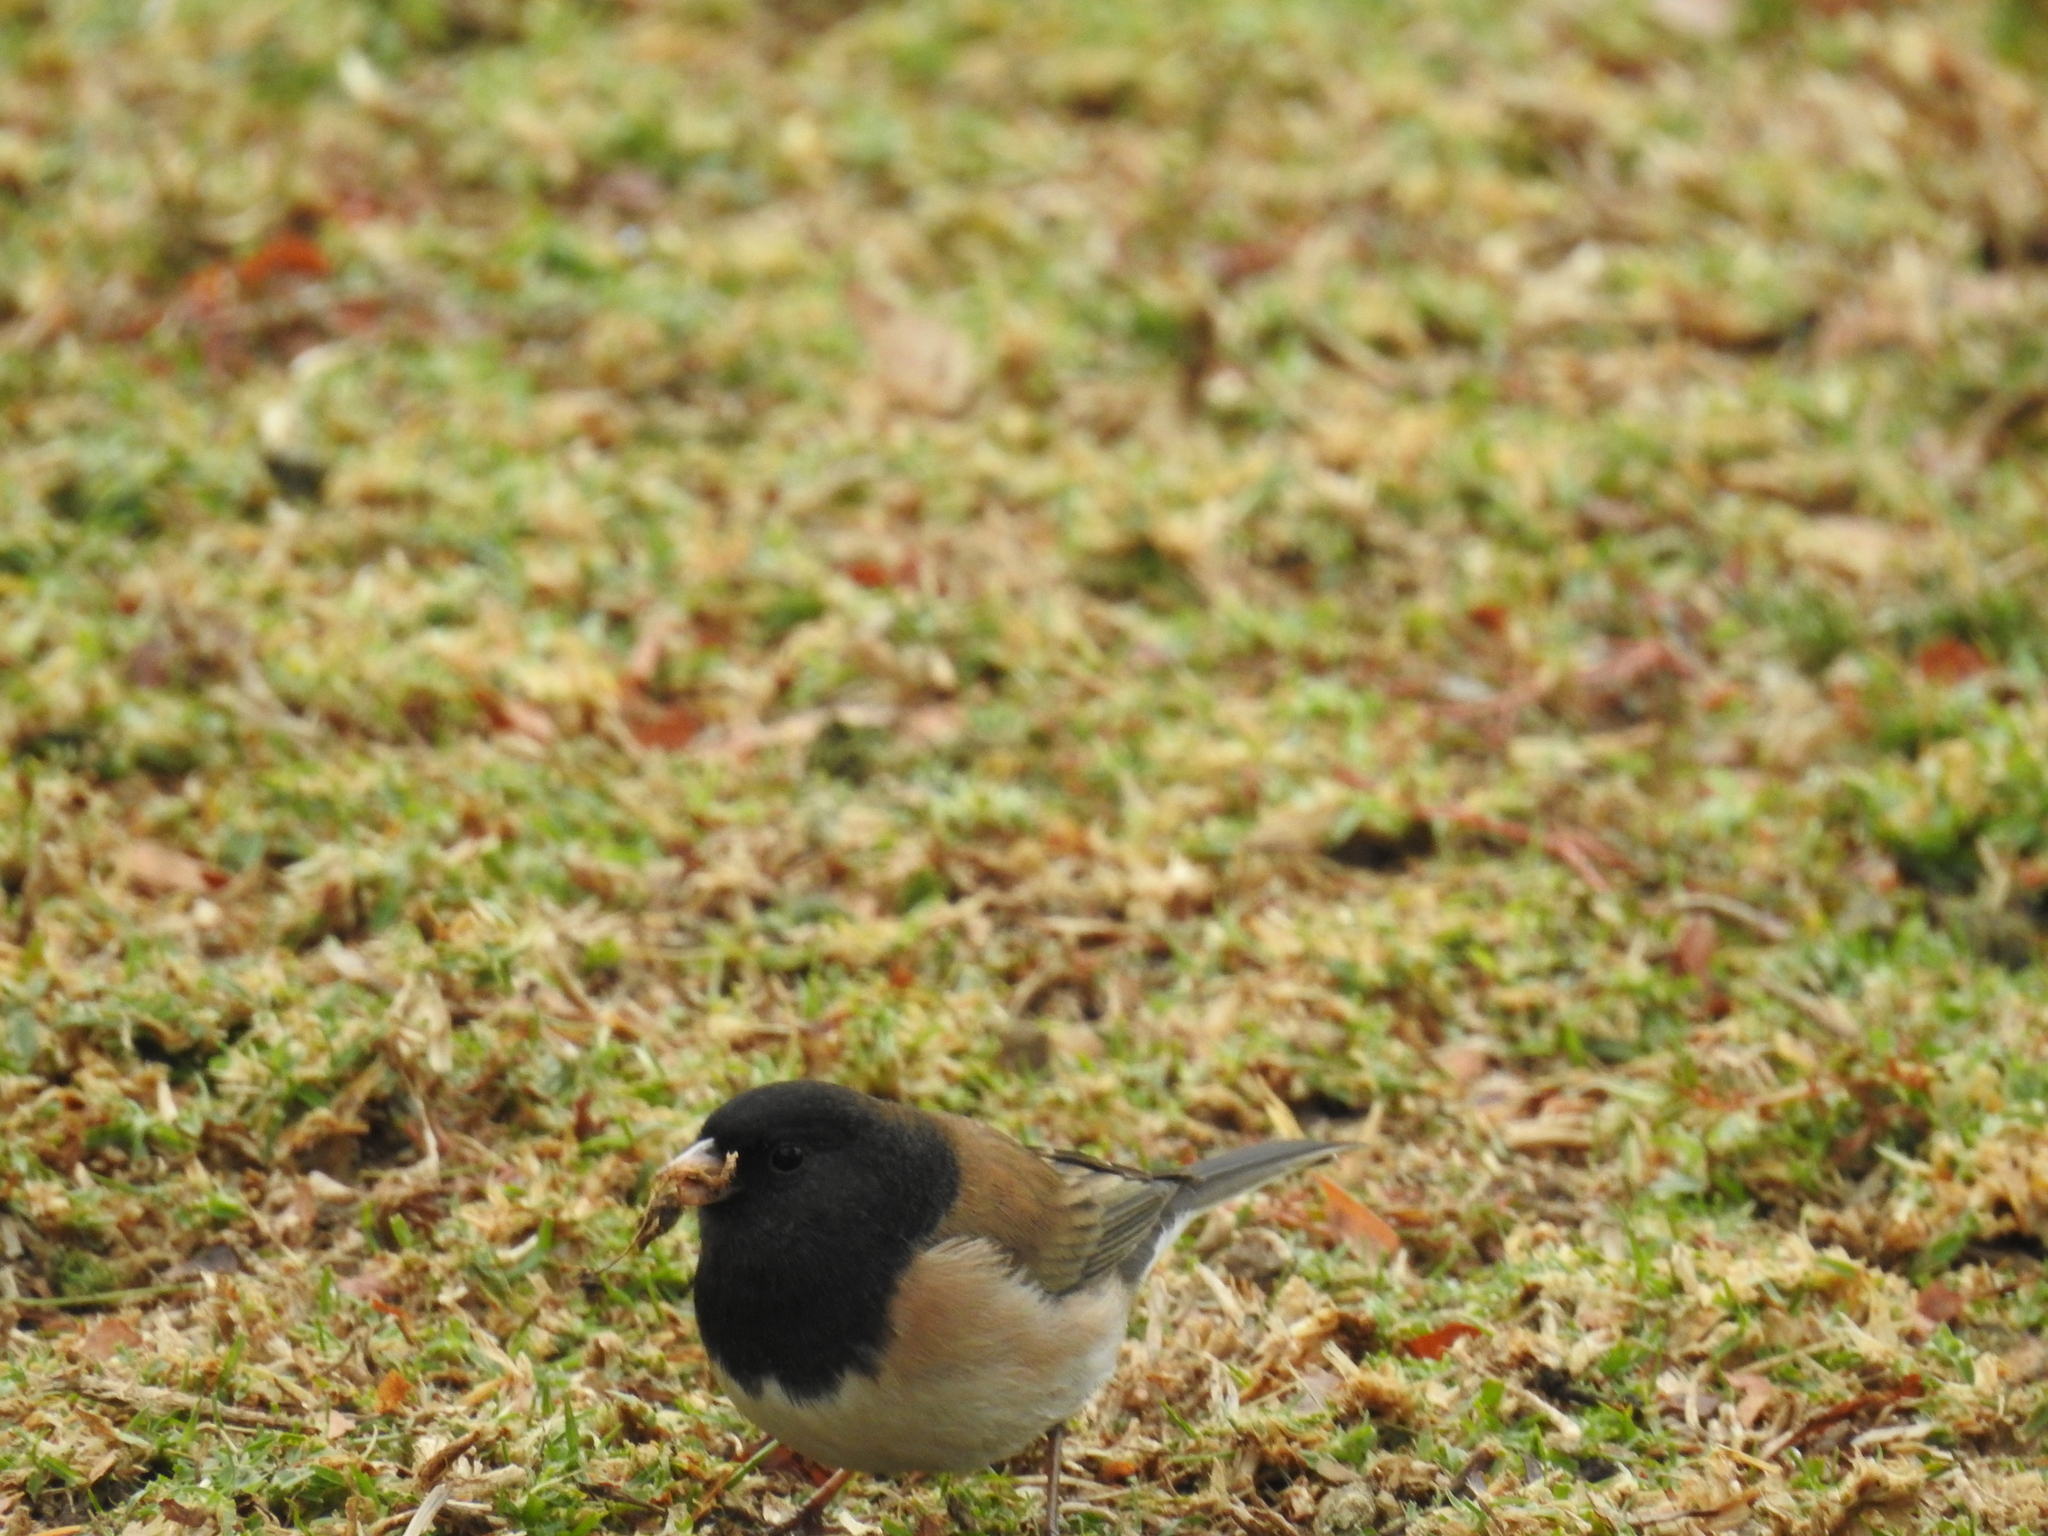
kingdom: Animalia
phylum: Chordata
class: Aves
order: Passeriformes
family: Passerellidae
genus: Junco
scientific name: Junco hyemalis
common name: Dark-eyed junco
